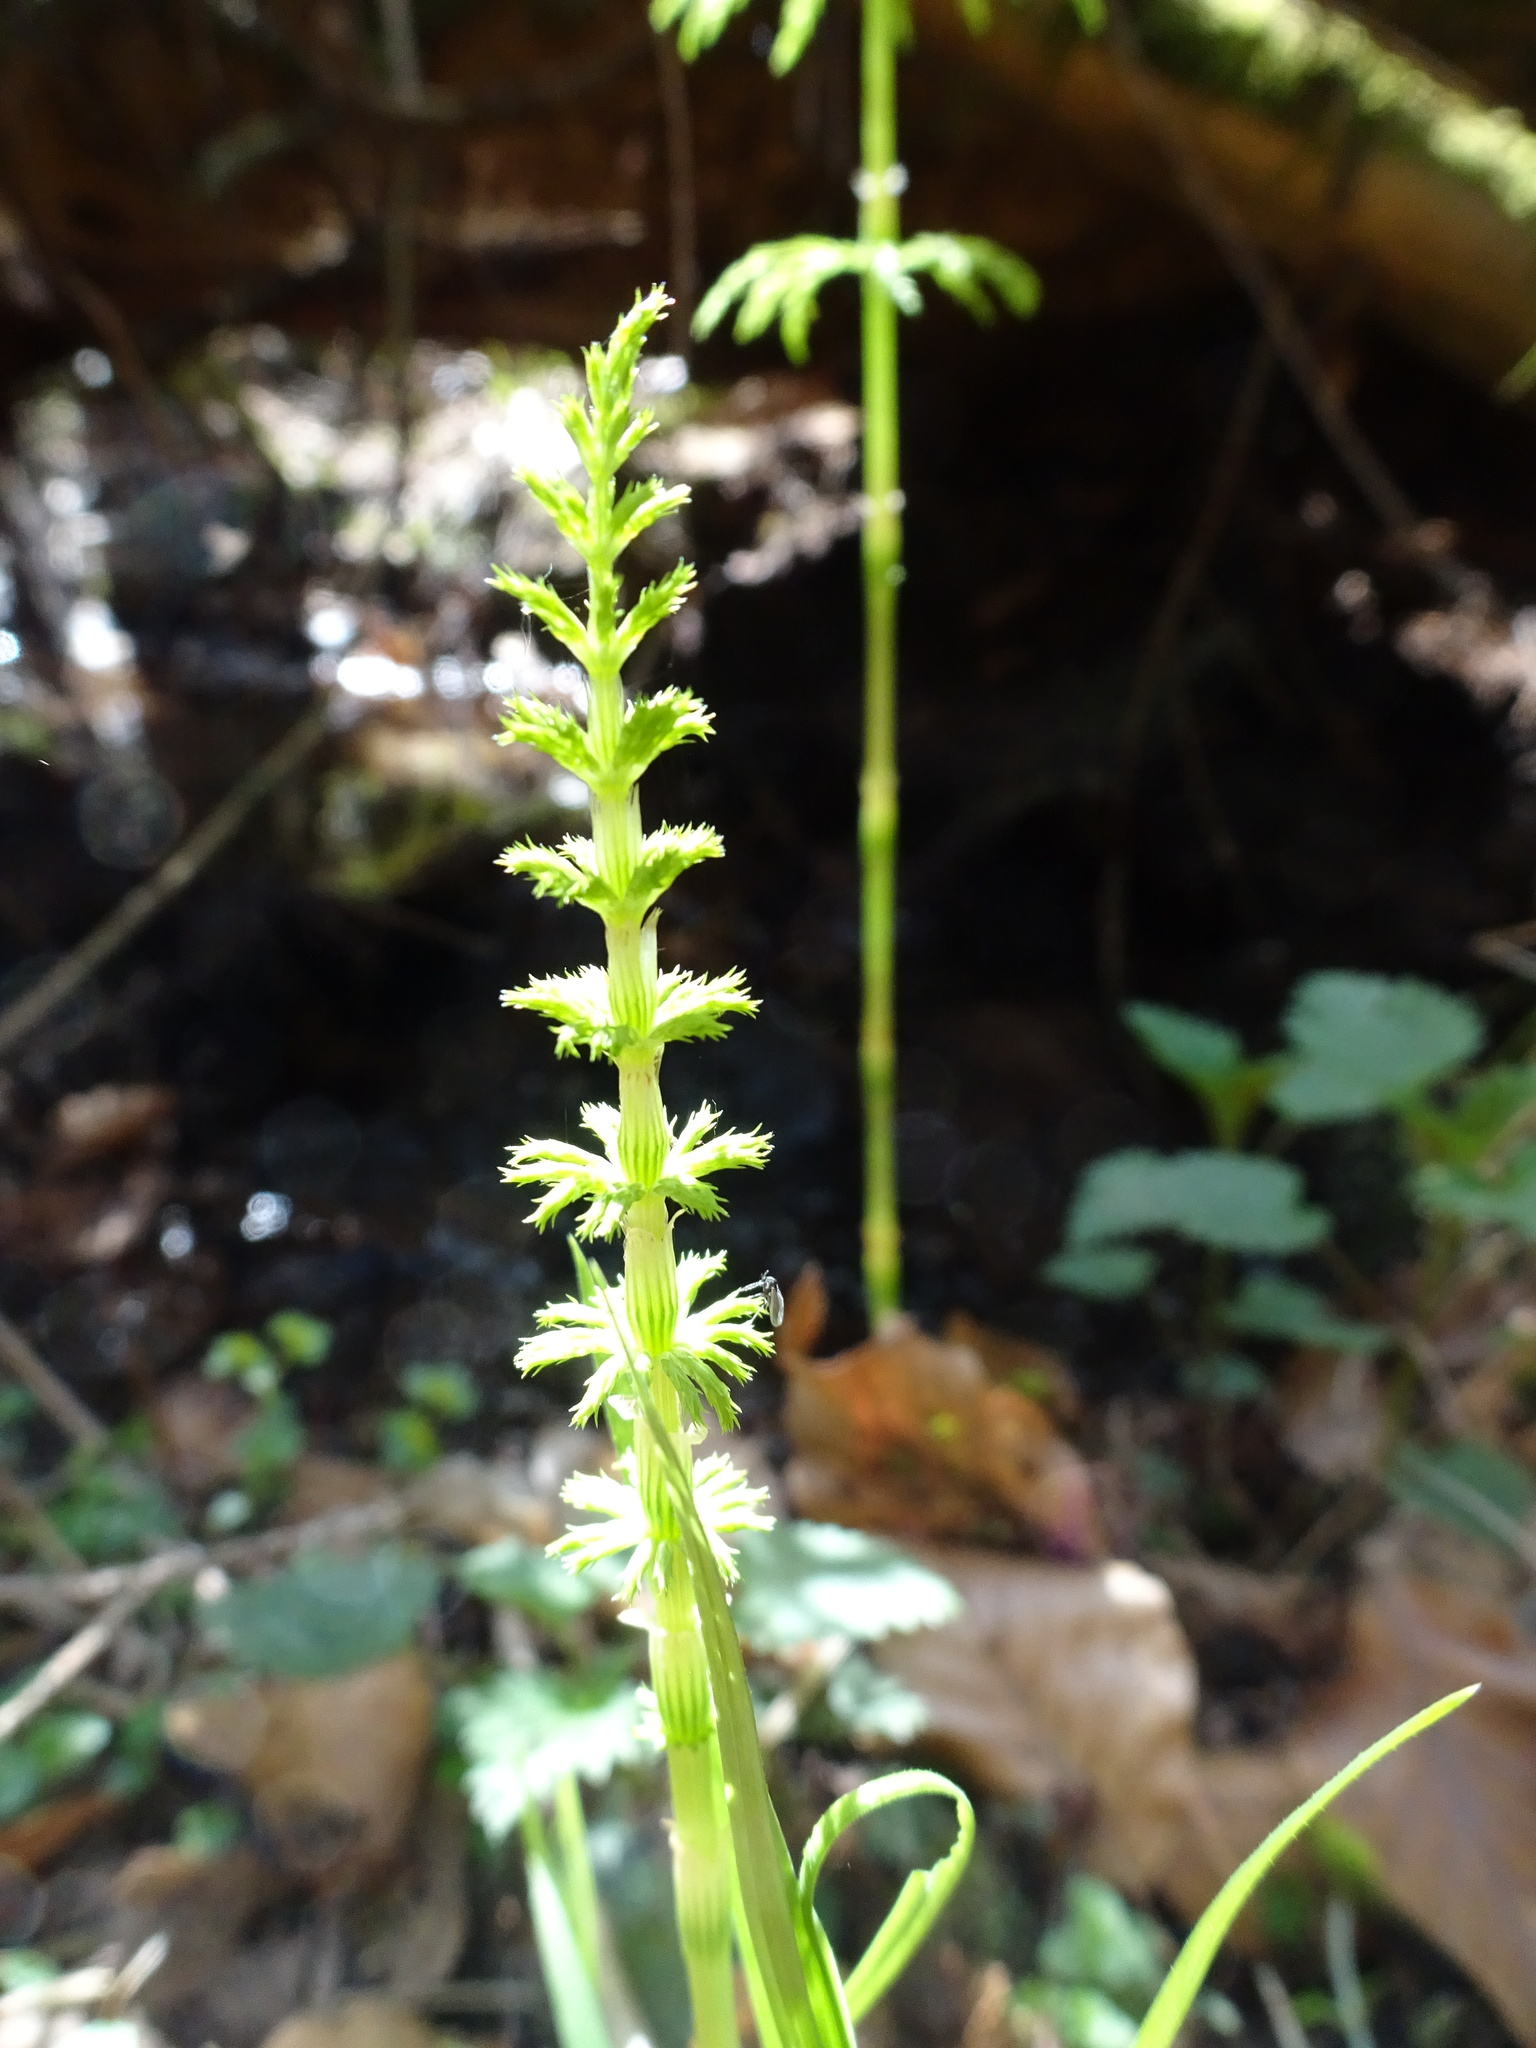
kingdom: Plantae
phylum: Tracheophyta
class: Polypodiopsida
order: Equisetales
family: Equisetaceae
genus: Equisetum
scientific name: Equisetum sylvaticum
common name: Wood horsetail
